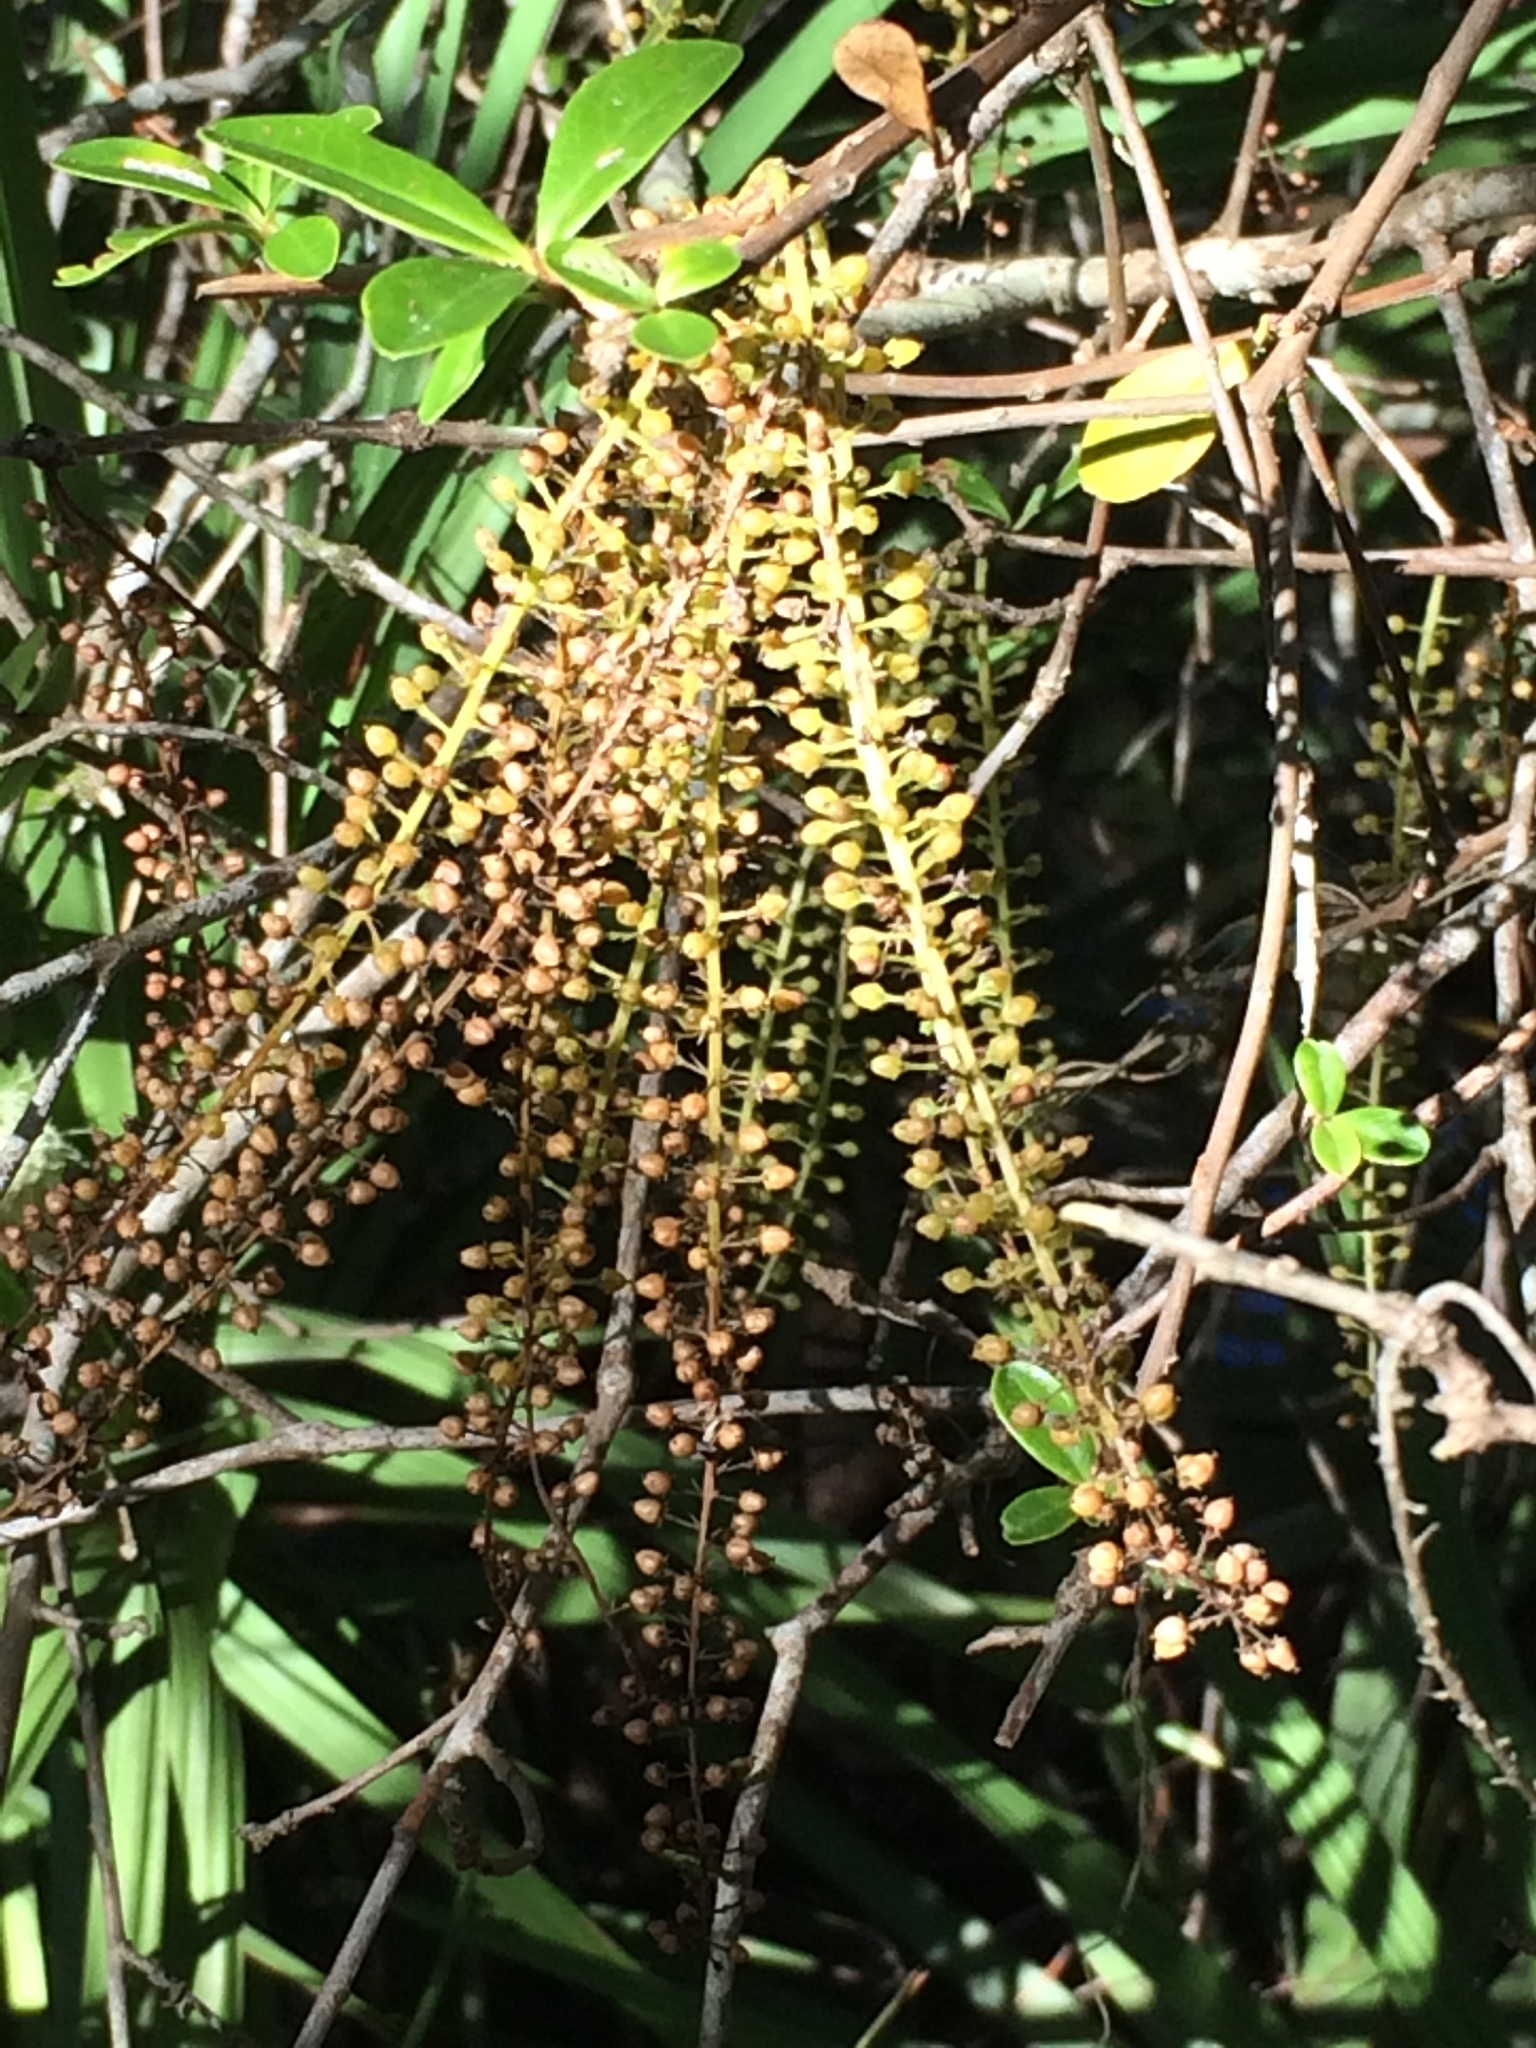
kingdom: Plantae
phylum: Tracheophyta
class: Magnoliopsida
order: Ericales
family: Cyrillaceae
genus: Cyrilla
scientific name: Cyrilla racemiflora
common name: Black titi
